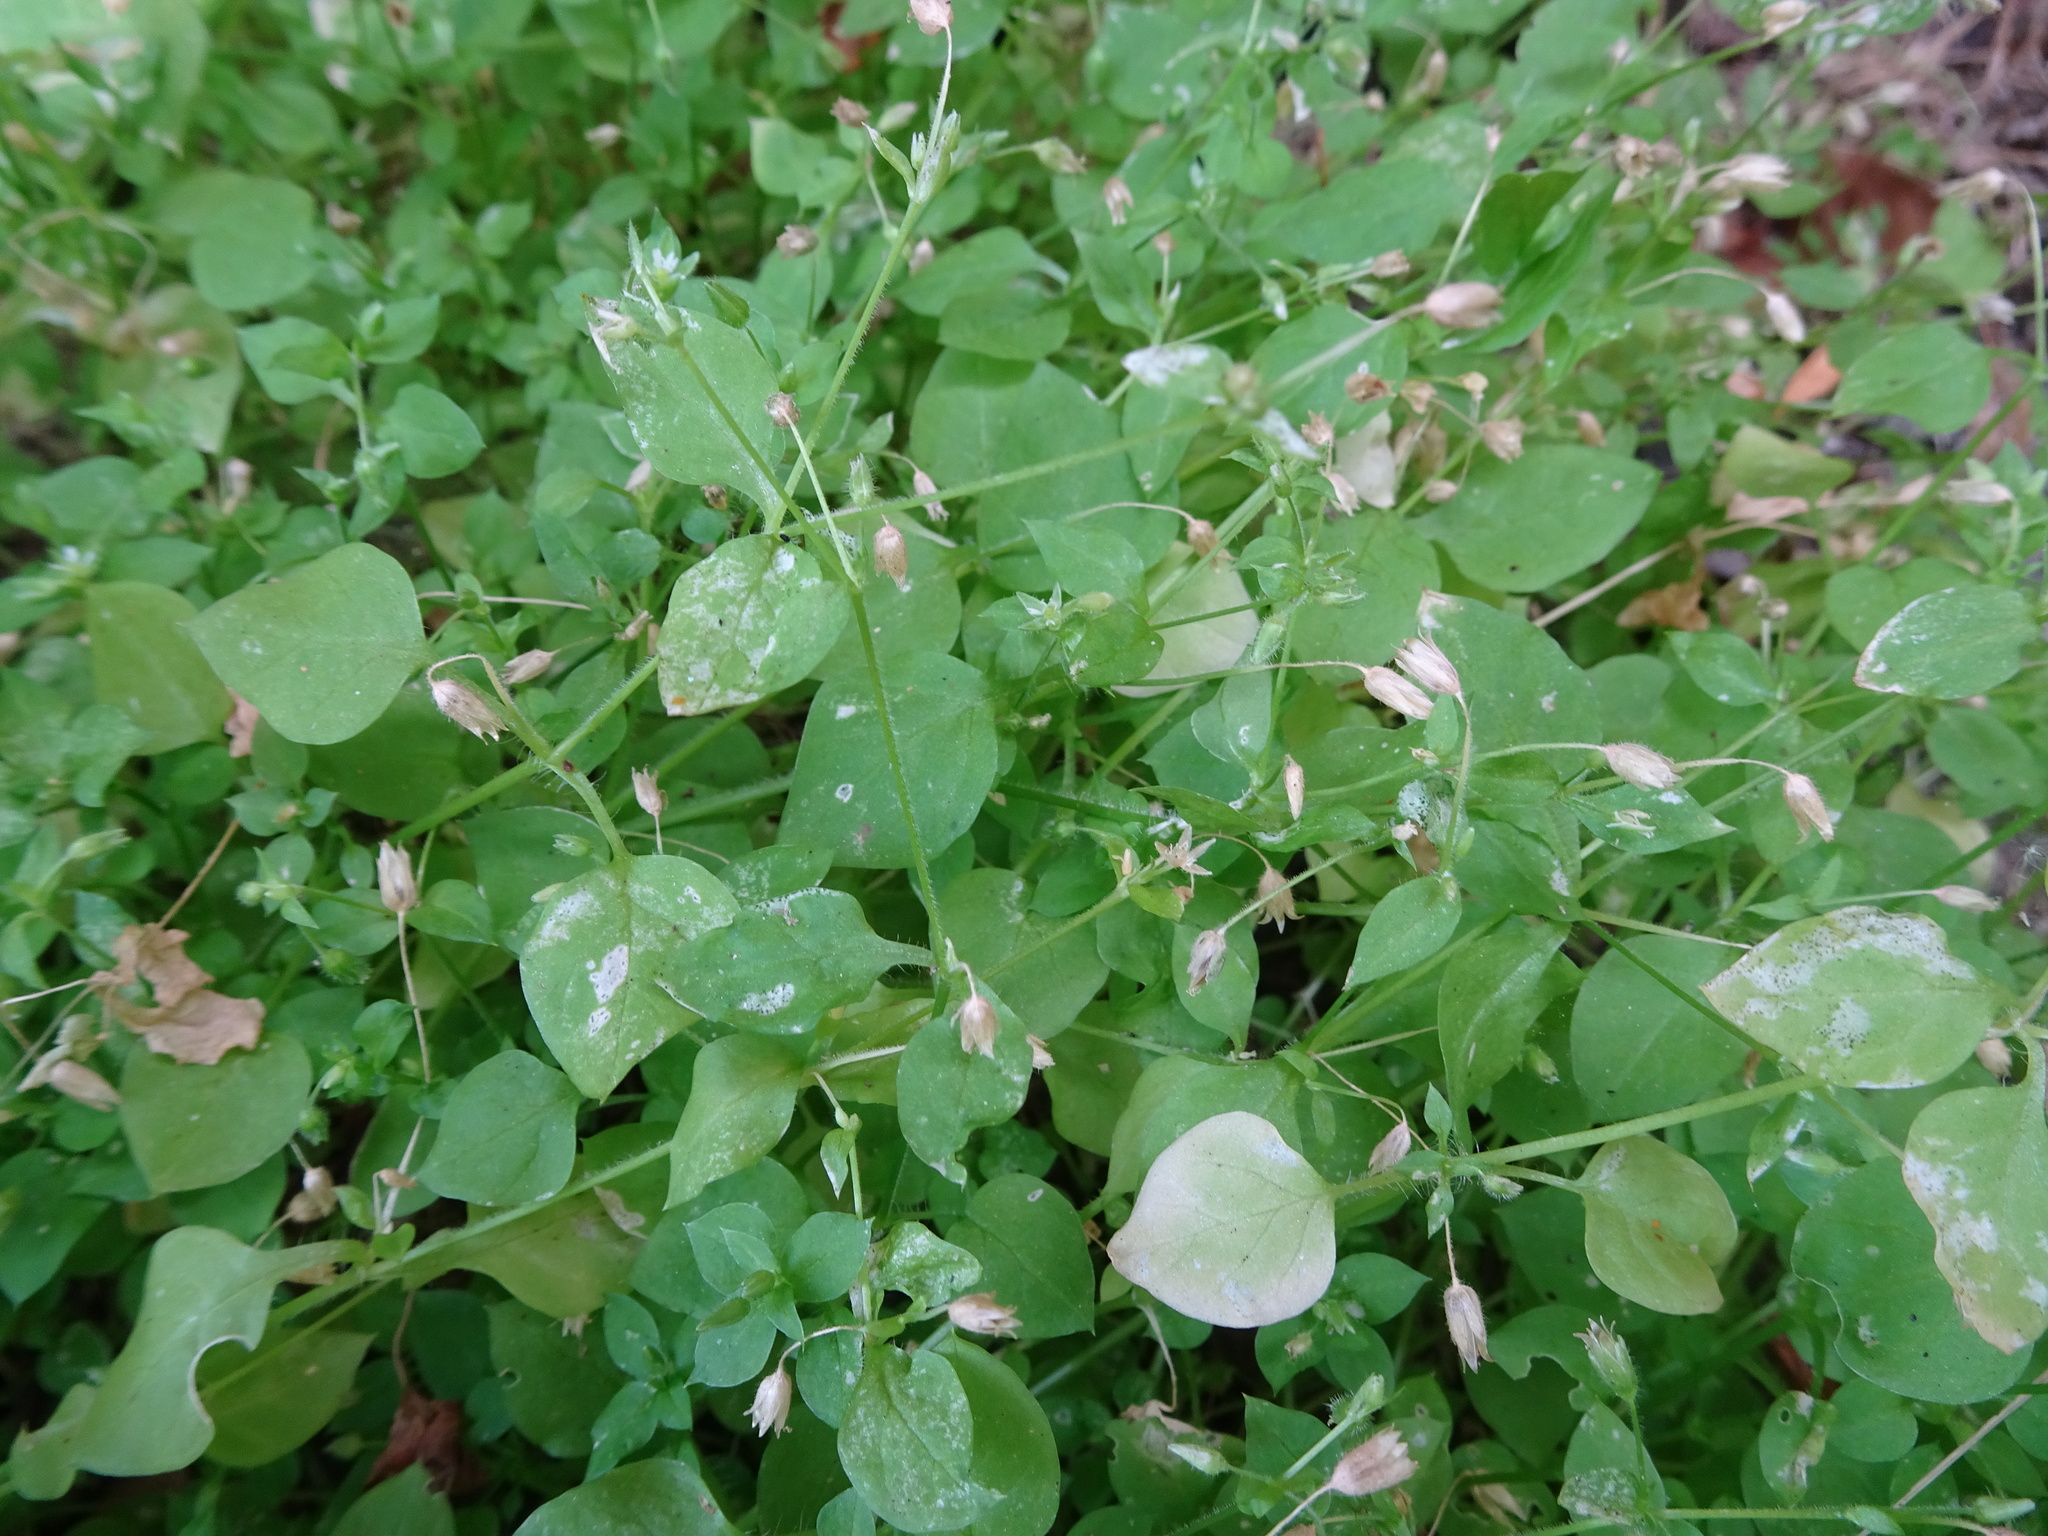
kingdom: Plantae
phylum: Tracheophyta
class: Magnoliopsida
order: Caryophyllales
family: Caryophyllaceae
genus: Stellaria
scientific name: Stellaria media
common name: Common chickweed
